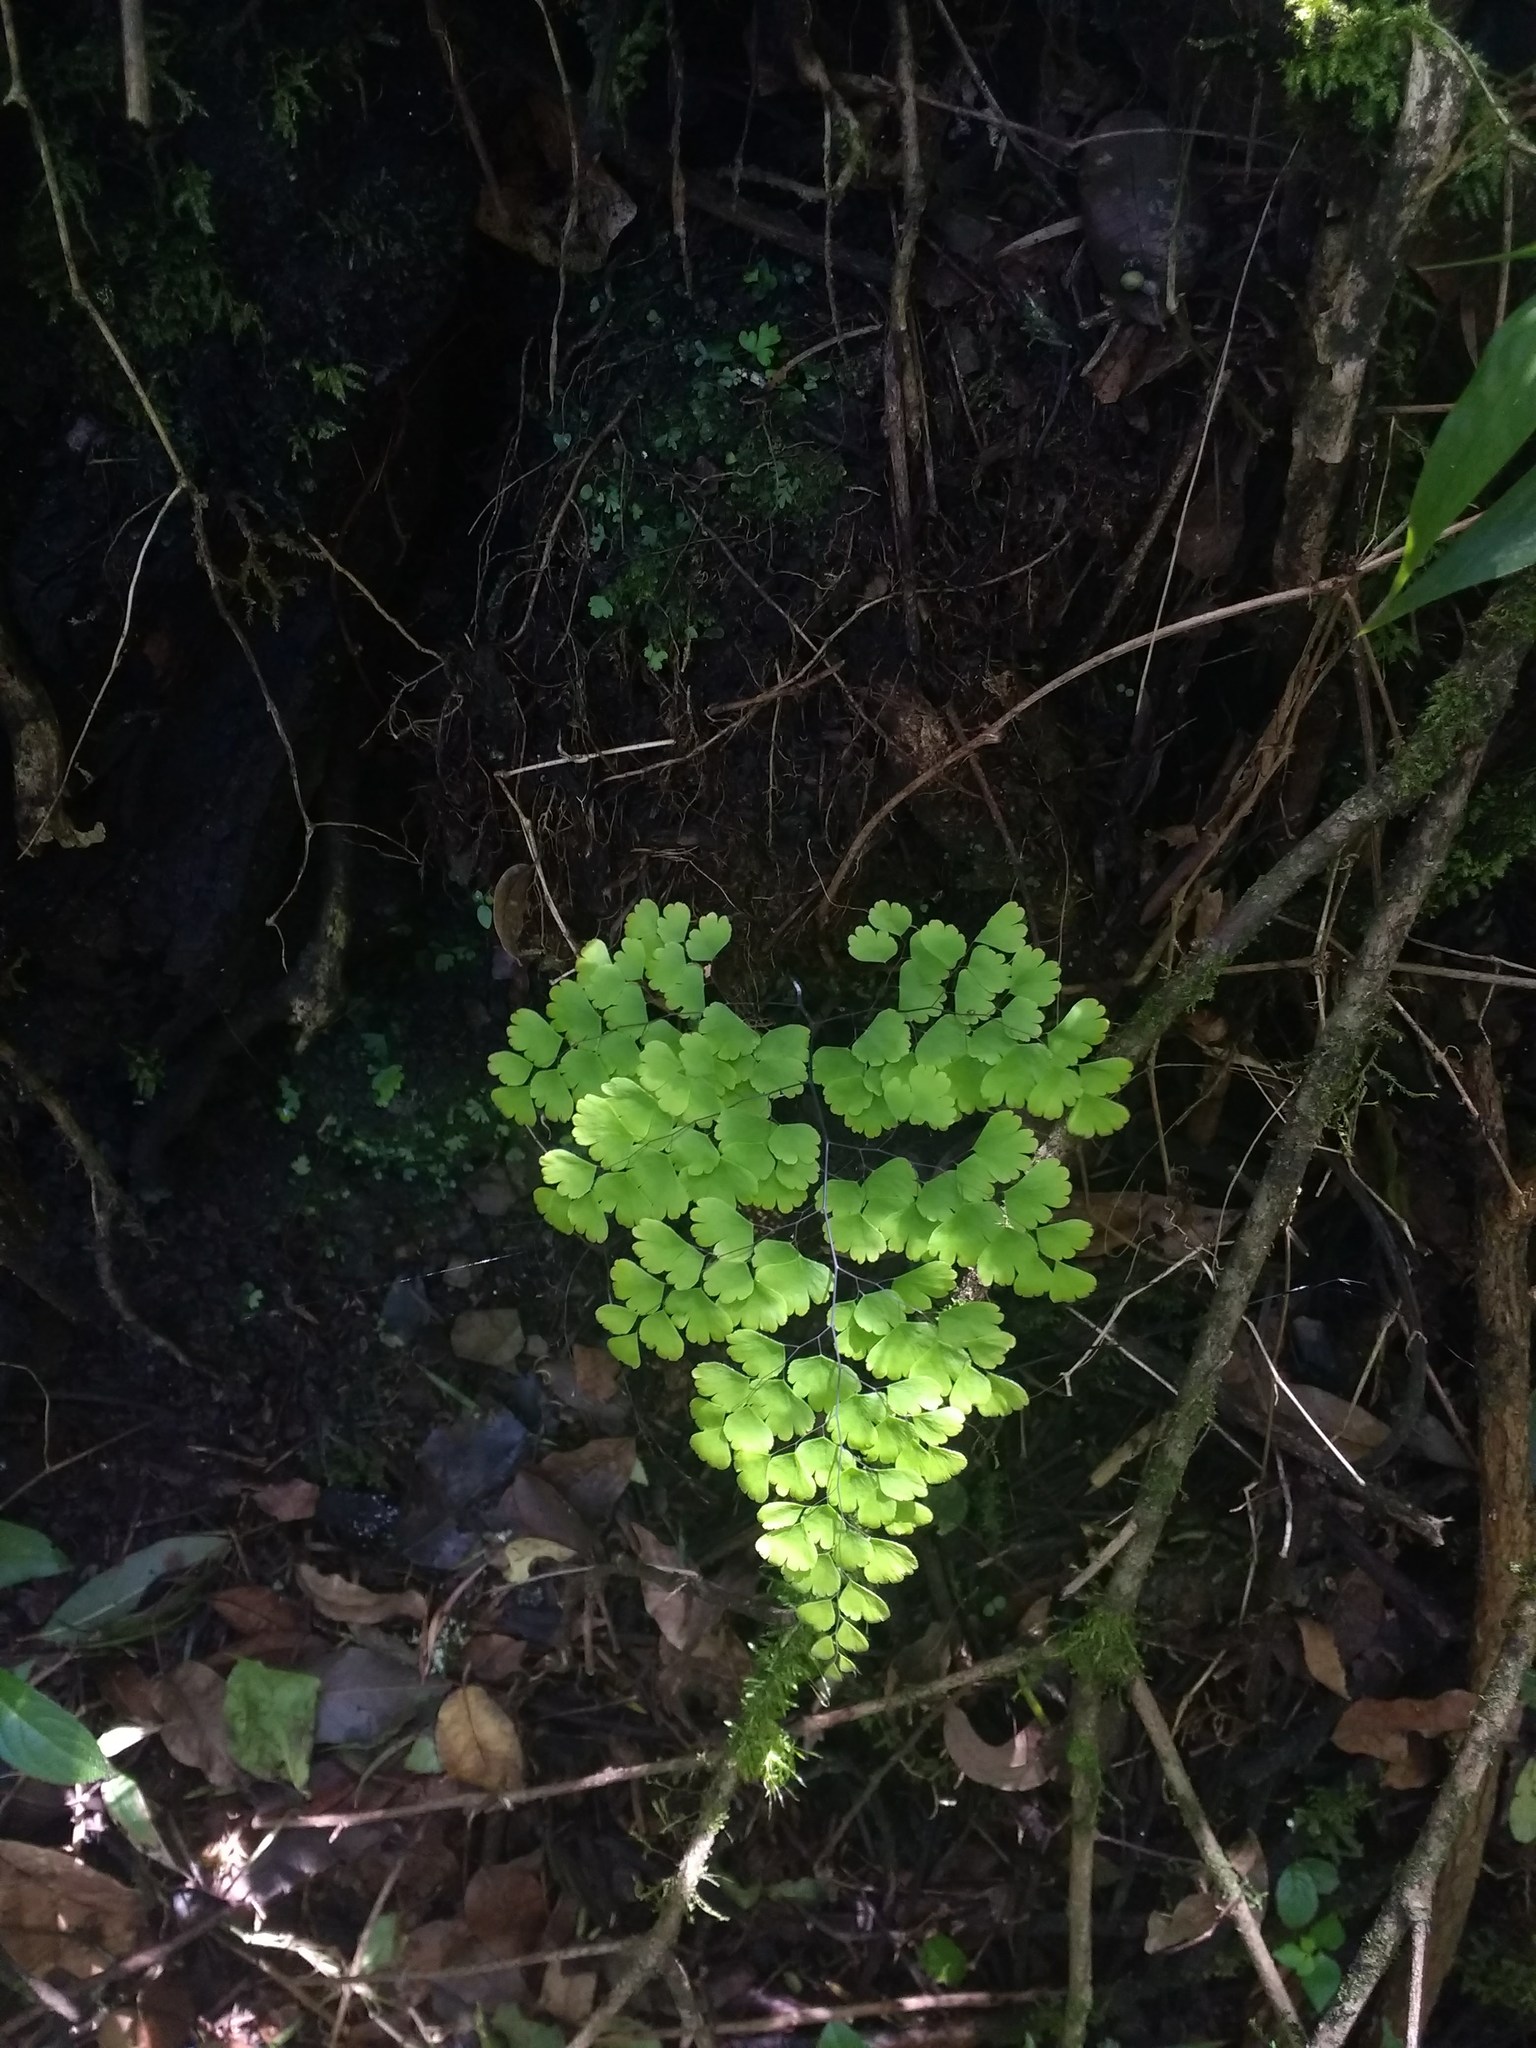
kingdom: Plantae
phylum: Tracheophyta
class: Polypodiopsida
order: Polypodiales
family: Pteridaceae
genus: Adiantum
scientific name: Adiantum raddianum
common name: Delta maidenhair fern
